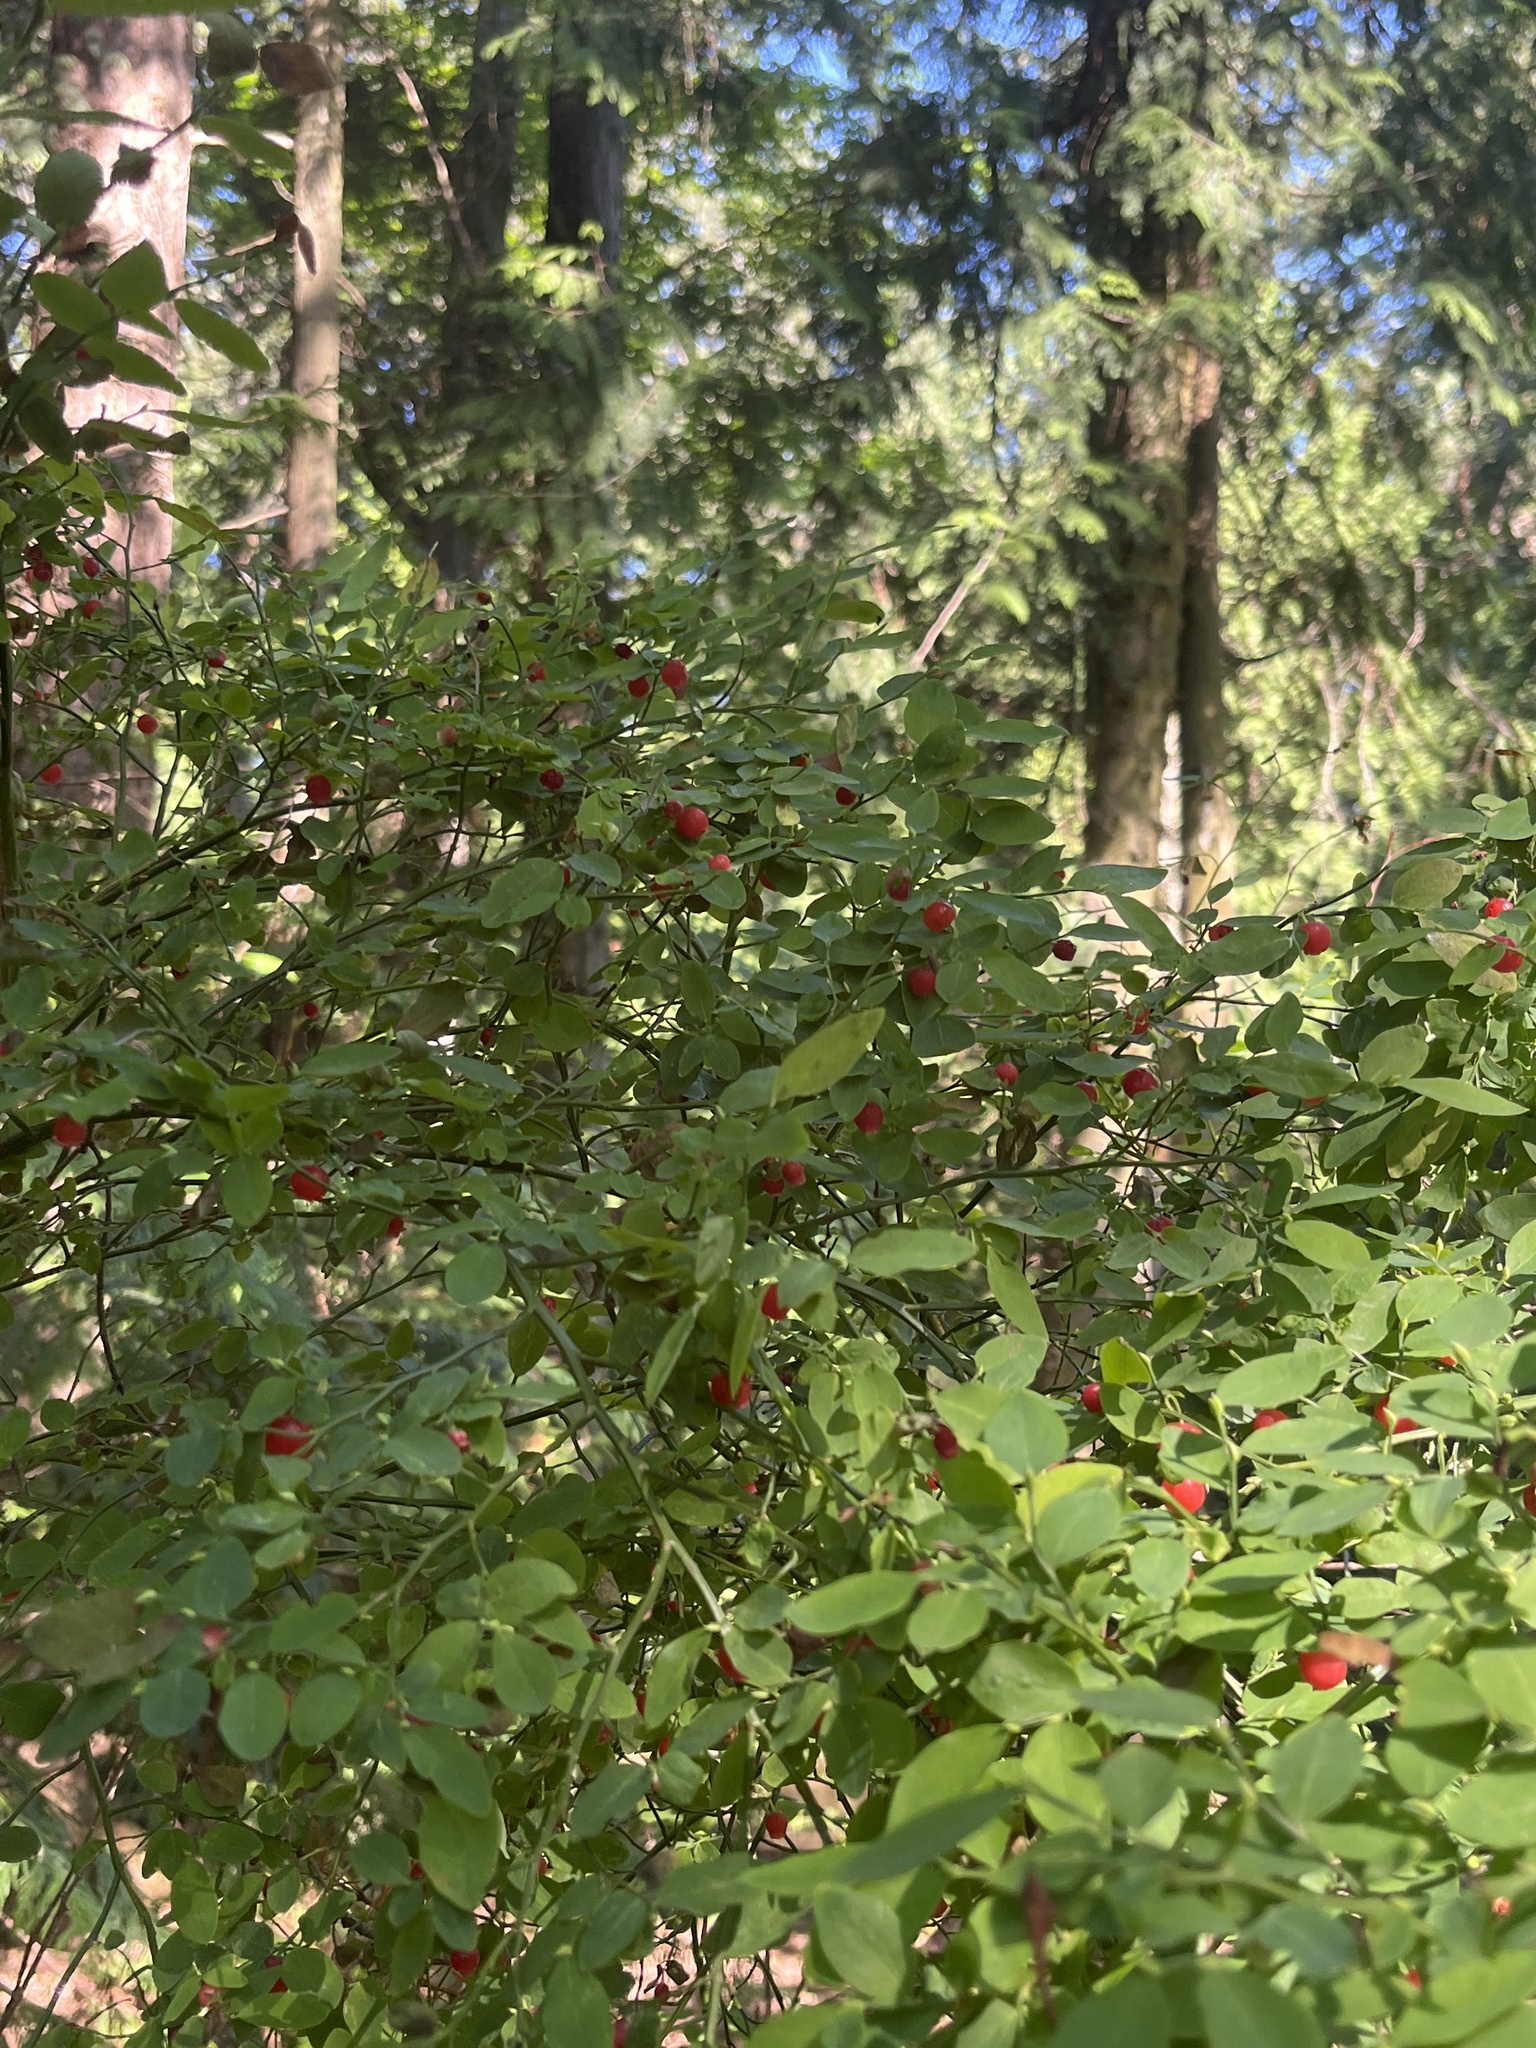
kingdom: Plantae
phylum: Tracheophyta
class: Magnoliopsida
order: Ericales
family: Ericaceae
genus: Vaccinium
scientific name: Vaccinium parvifolium
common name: Red-huckleberry
